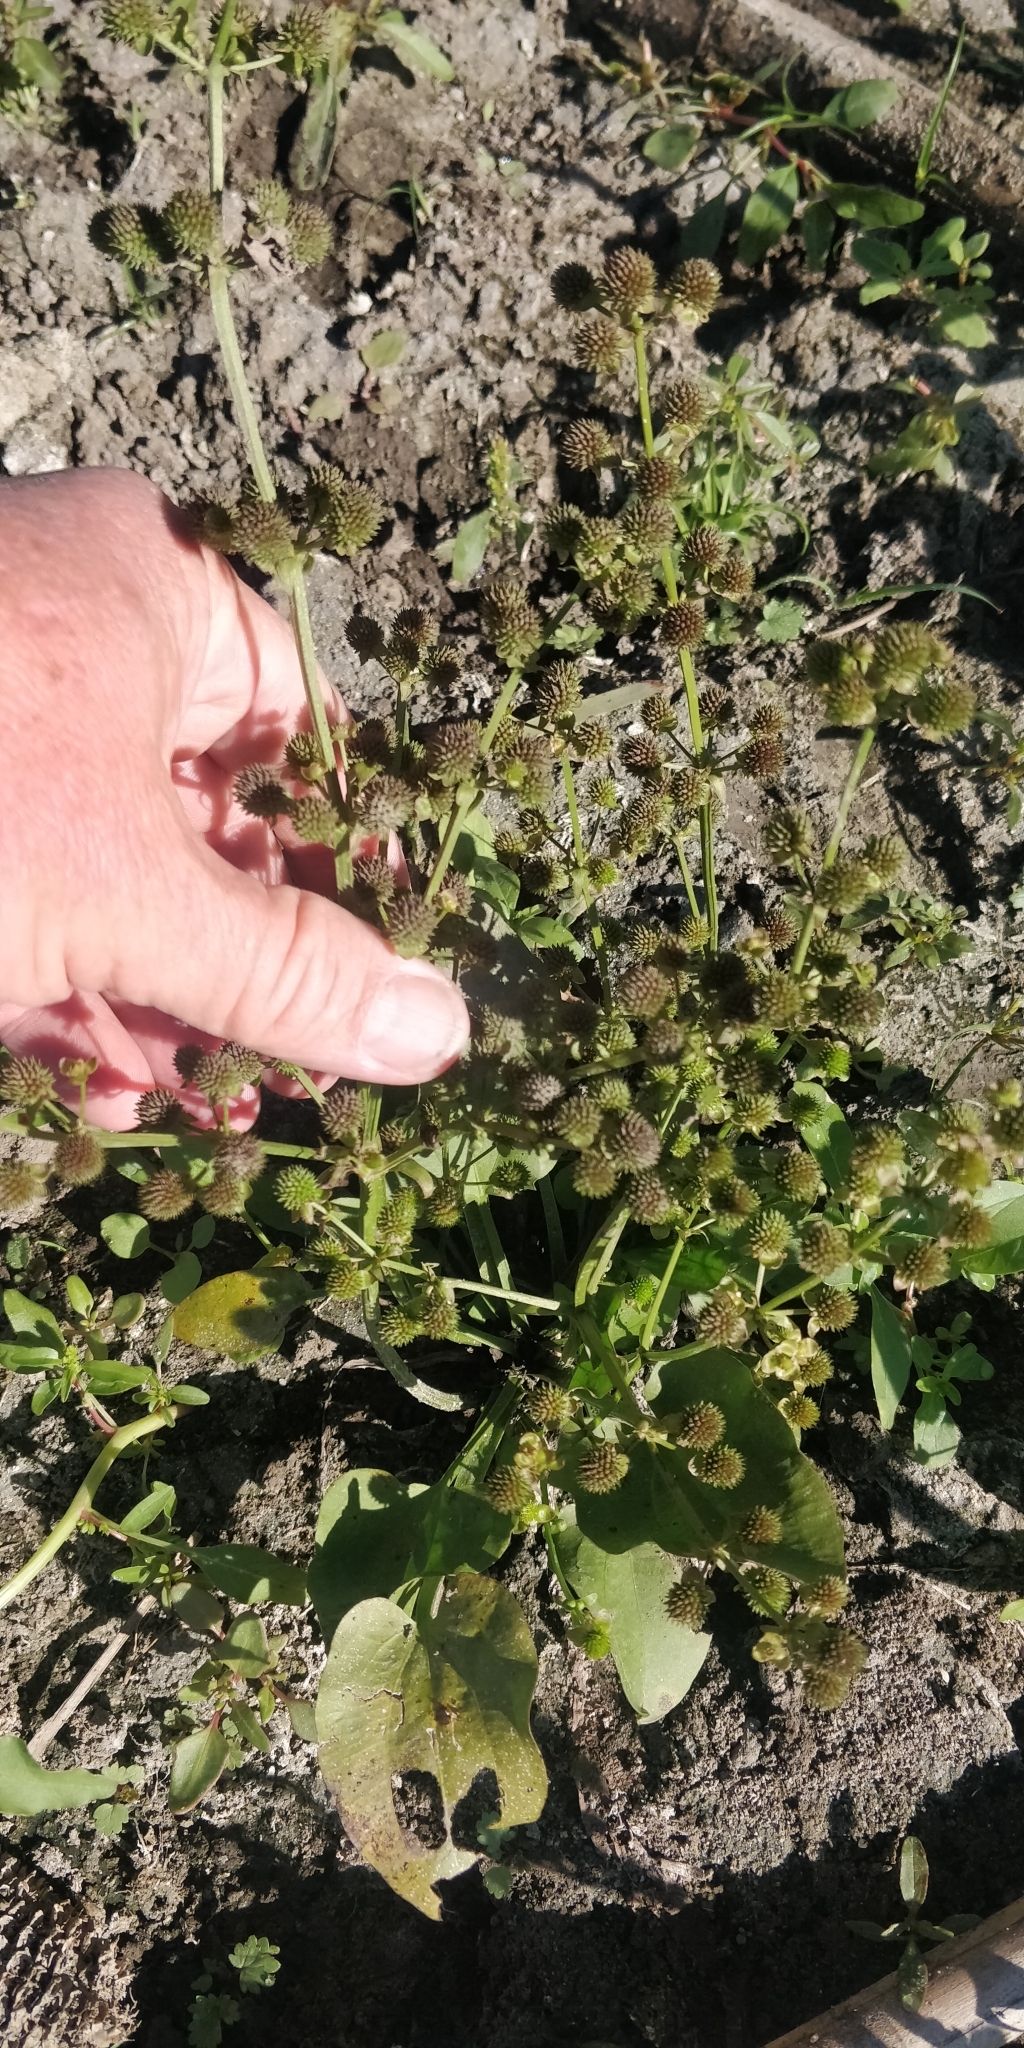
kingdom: Plantae
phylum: Tracheophyta
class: Liliopsida
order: Alismatales
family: Alismataceae
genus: Echinodorus
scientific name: Echinodorus berteroi
